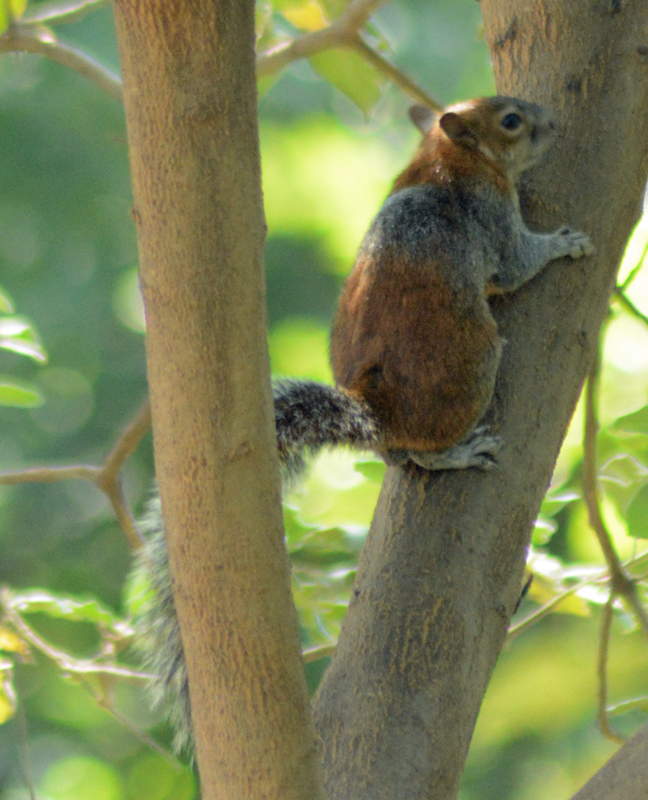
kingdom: Animalia
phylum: Chordata
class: Mammalia
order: Rodentia
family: Sciuridae
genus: Sciurus
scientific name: Sciurus aureogaster
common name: Red-bellied squirrel
